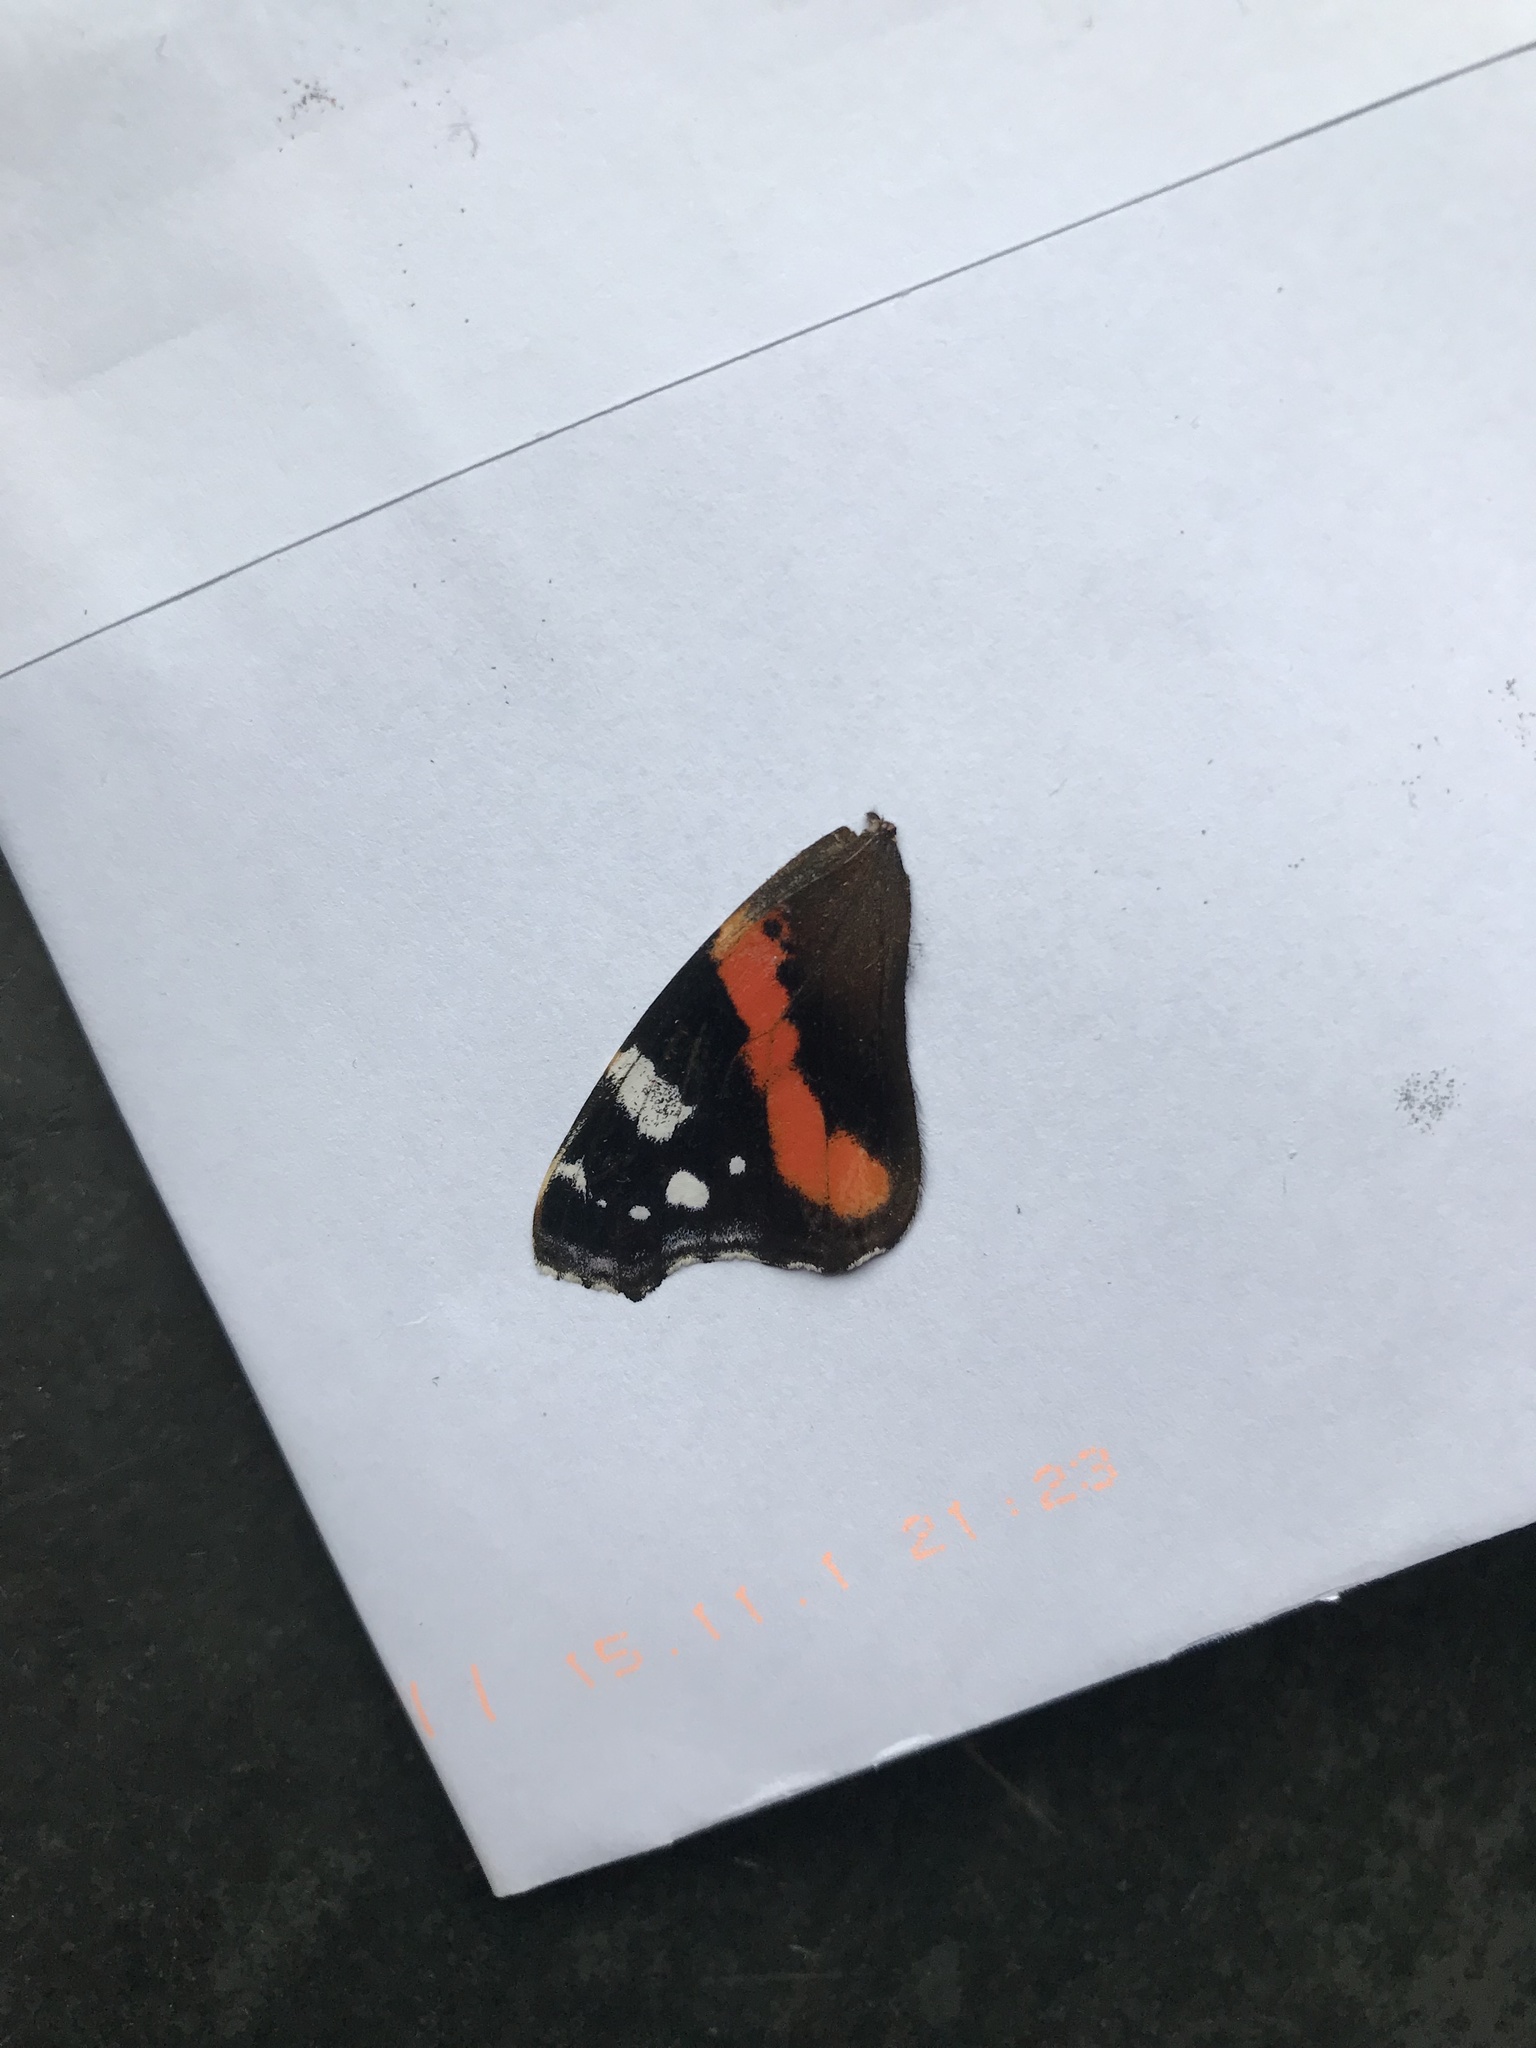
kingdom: Animalia
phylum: Arthropoda
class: Insecta
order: Lepidoptera
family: Nymphalidae
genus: Vanessa
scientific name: Vanessa atalanta
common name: Red admiral
